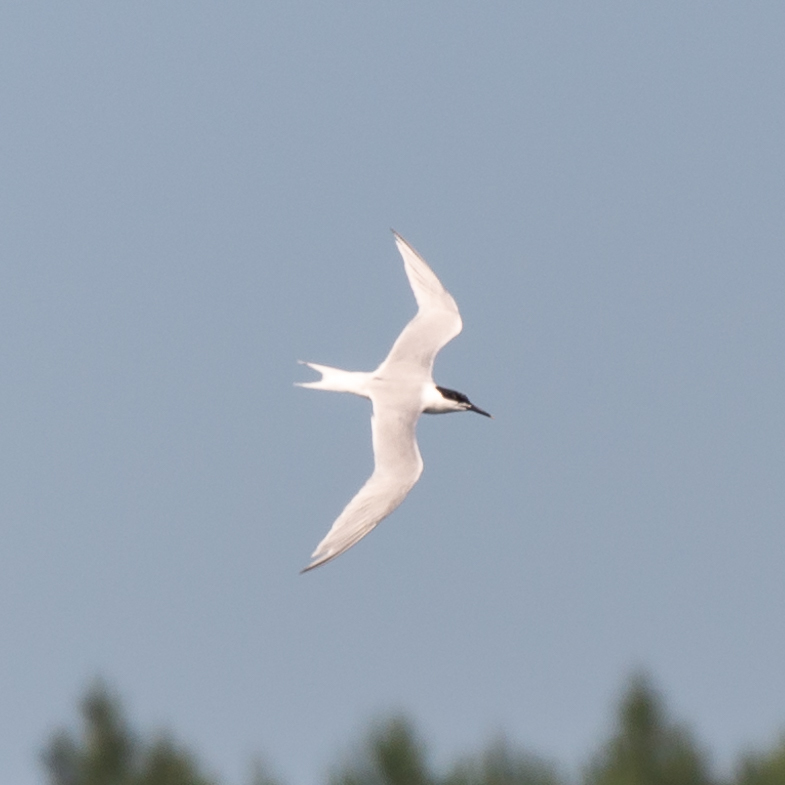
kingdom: Animalia
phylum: Chordata
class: Aves
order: Charadriiformes
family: Laridae
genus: Thalasseus
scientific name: Thalasseus sandvicensis
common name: Sandwich tern
